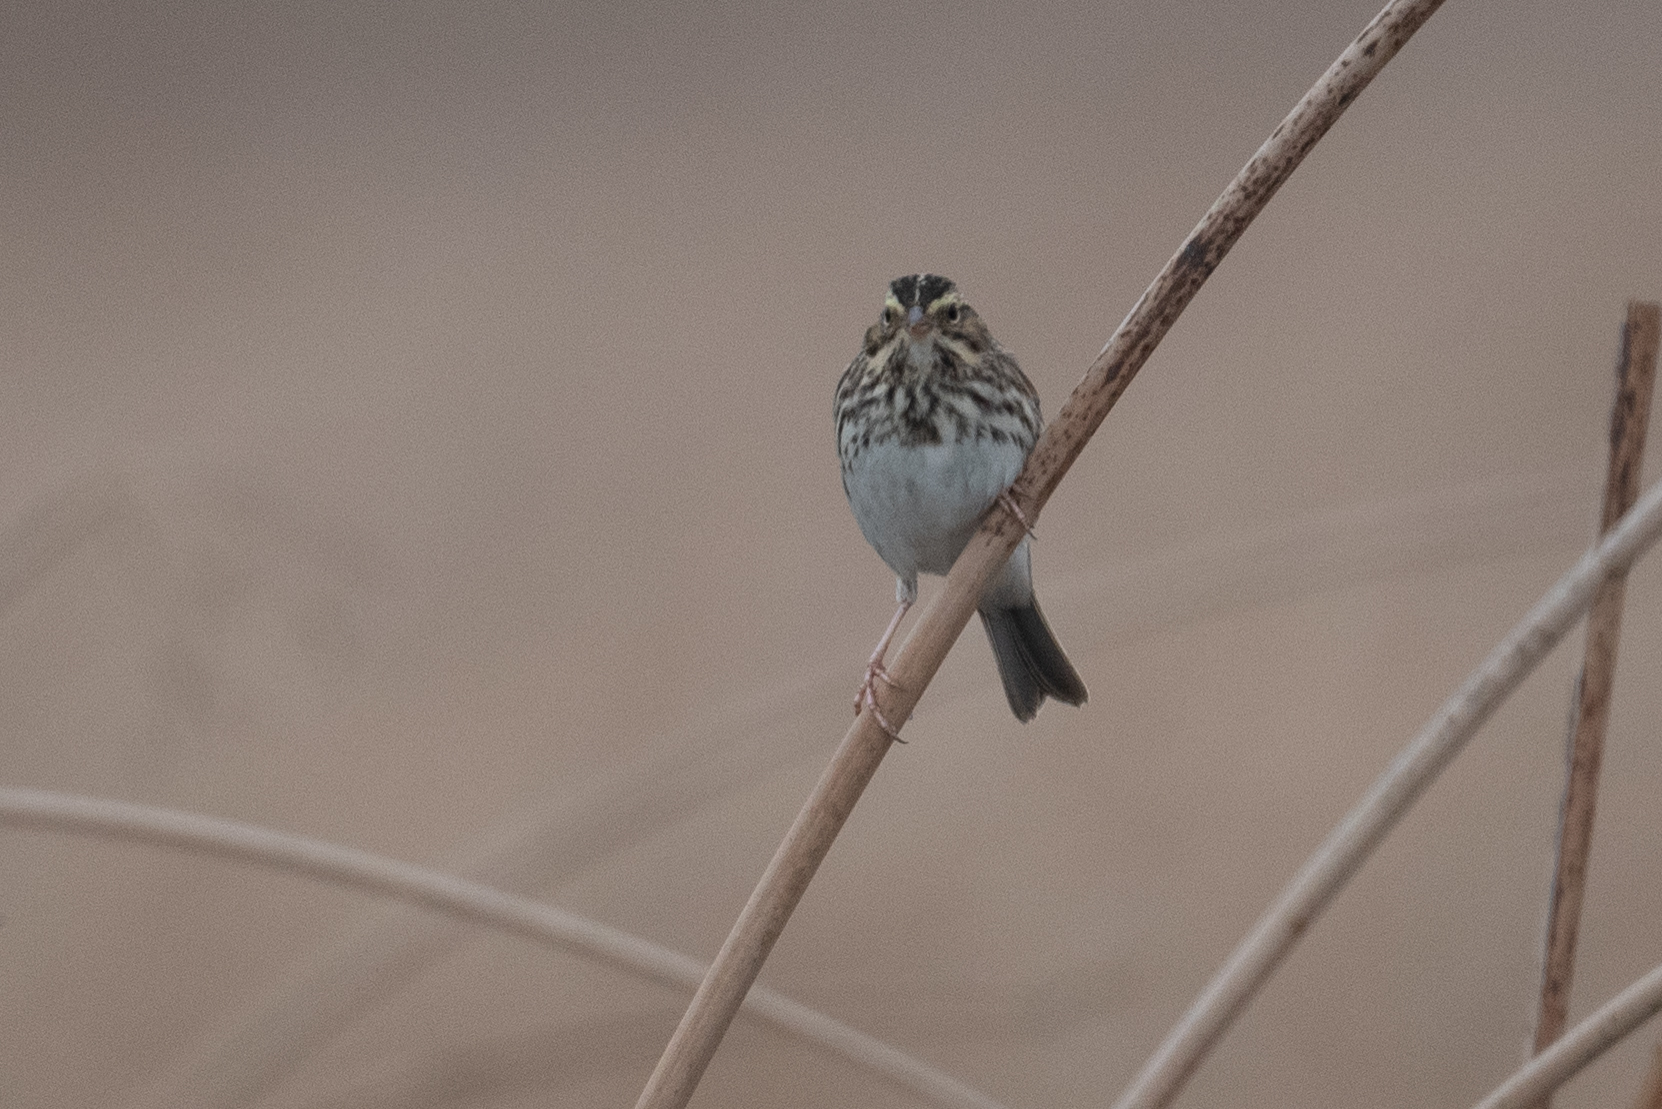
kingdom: Animalia
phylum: Chordata
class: Aves
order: Passeriformes
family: Passerellidae
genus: Passerculus
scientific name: Passerculus sandwichensis
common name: Savannah sparrow
